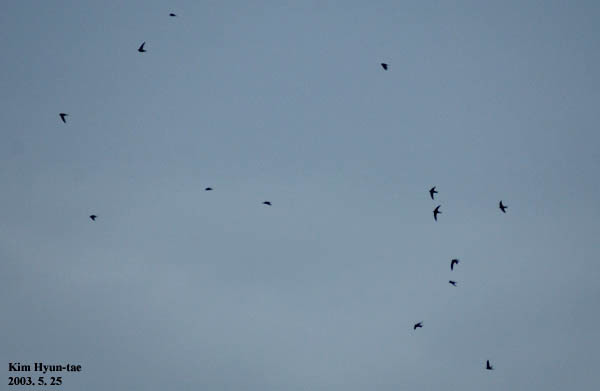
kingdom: Animalia
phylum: Chordata
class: Aves
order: Apodiformes
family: Apodidae
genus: Apus
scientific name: Apus pacificus
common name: Pacific swift
